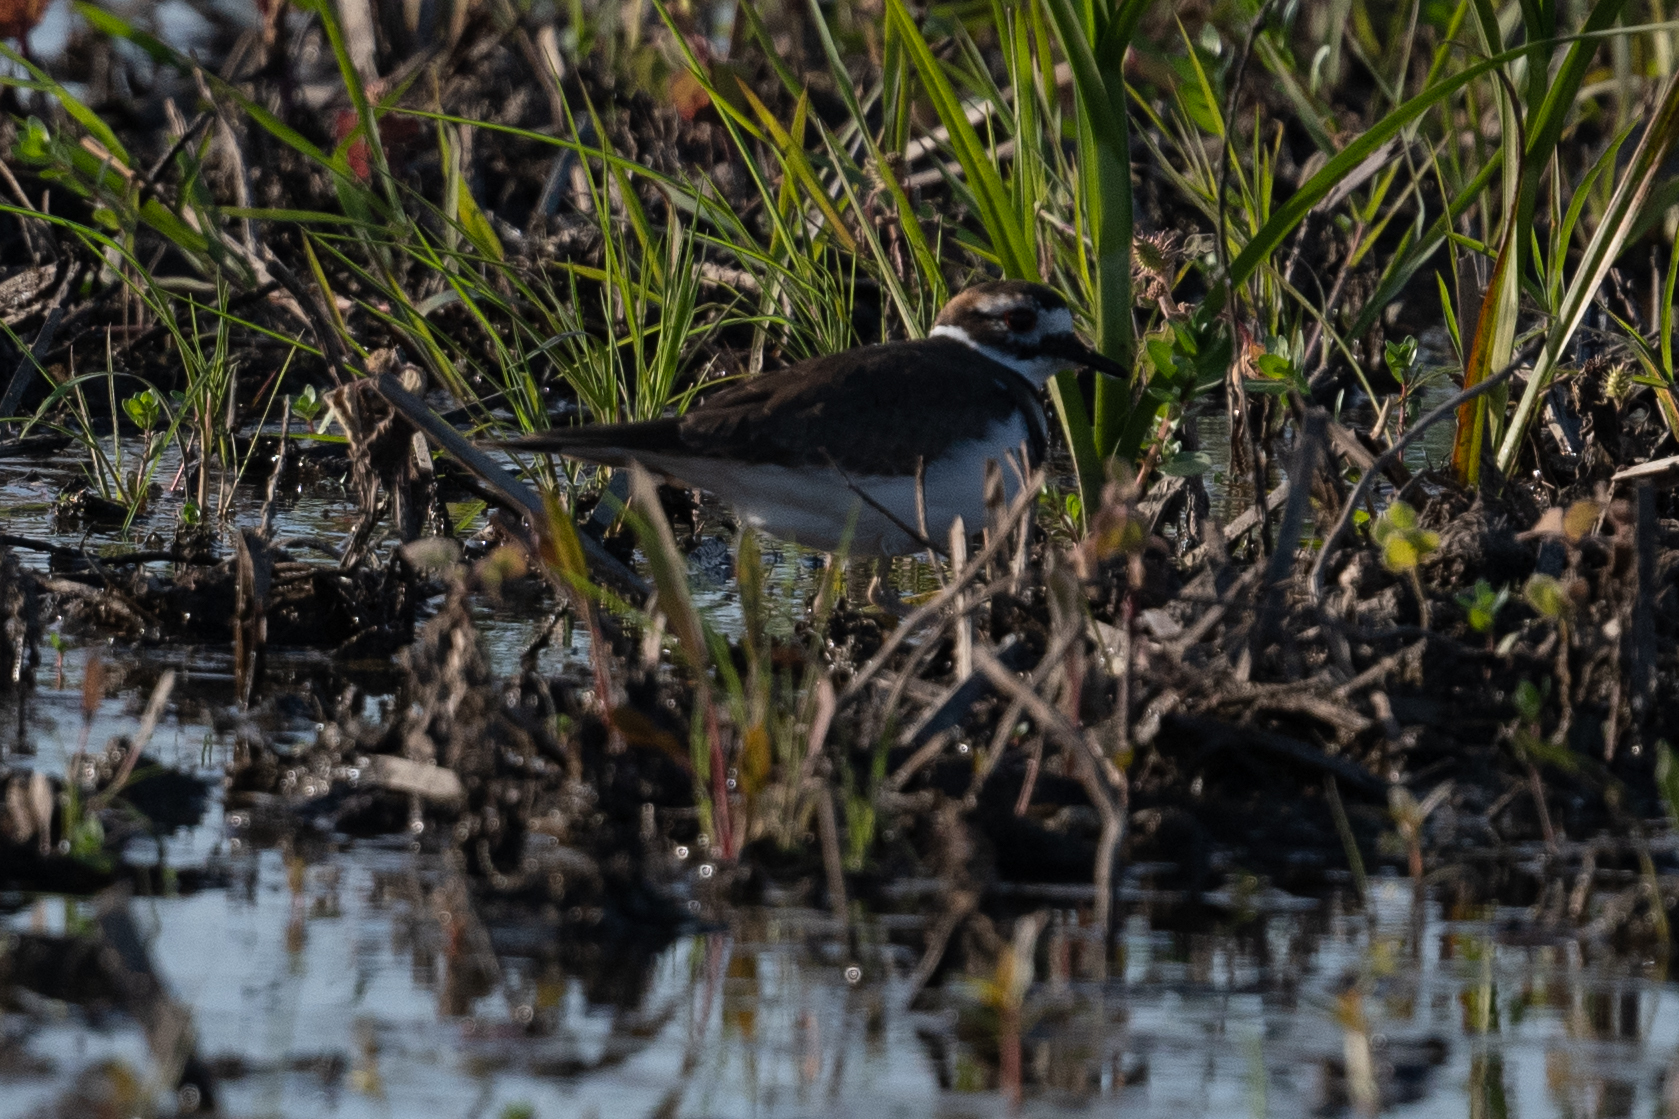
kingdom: Animalia
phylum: Chordata
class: Aves
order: Charadriiformes
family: Charadriidae
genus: Charadrius
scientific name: Charadrius vociferus
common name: Killdeer
